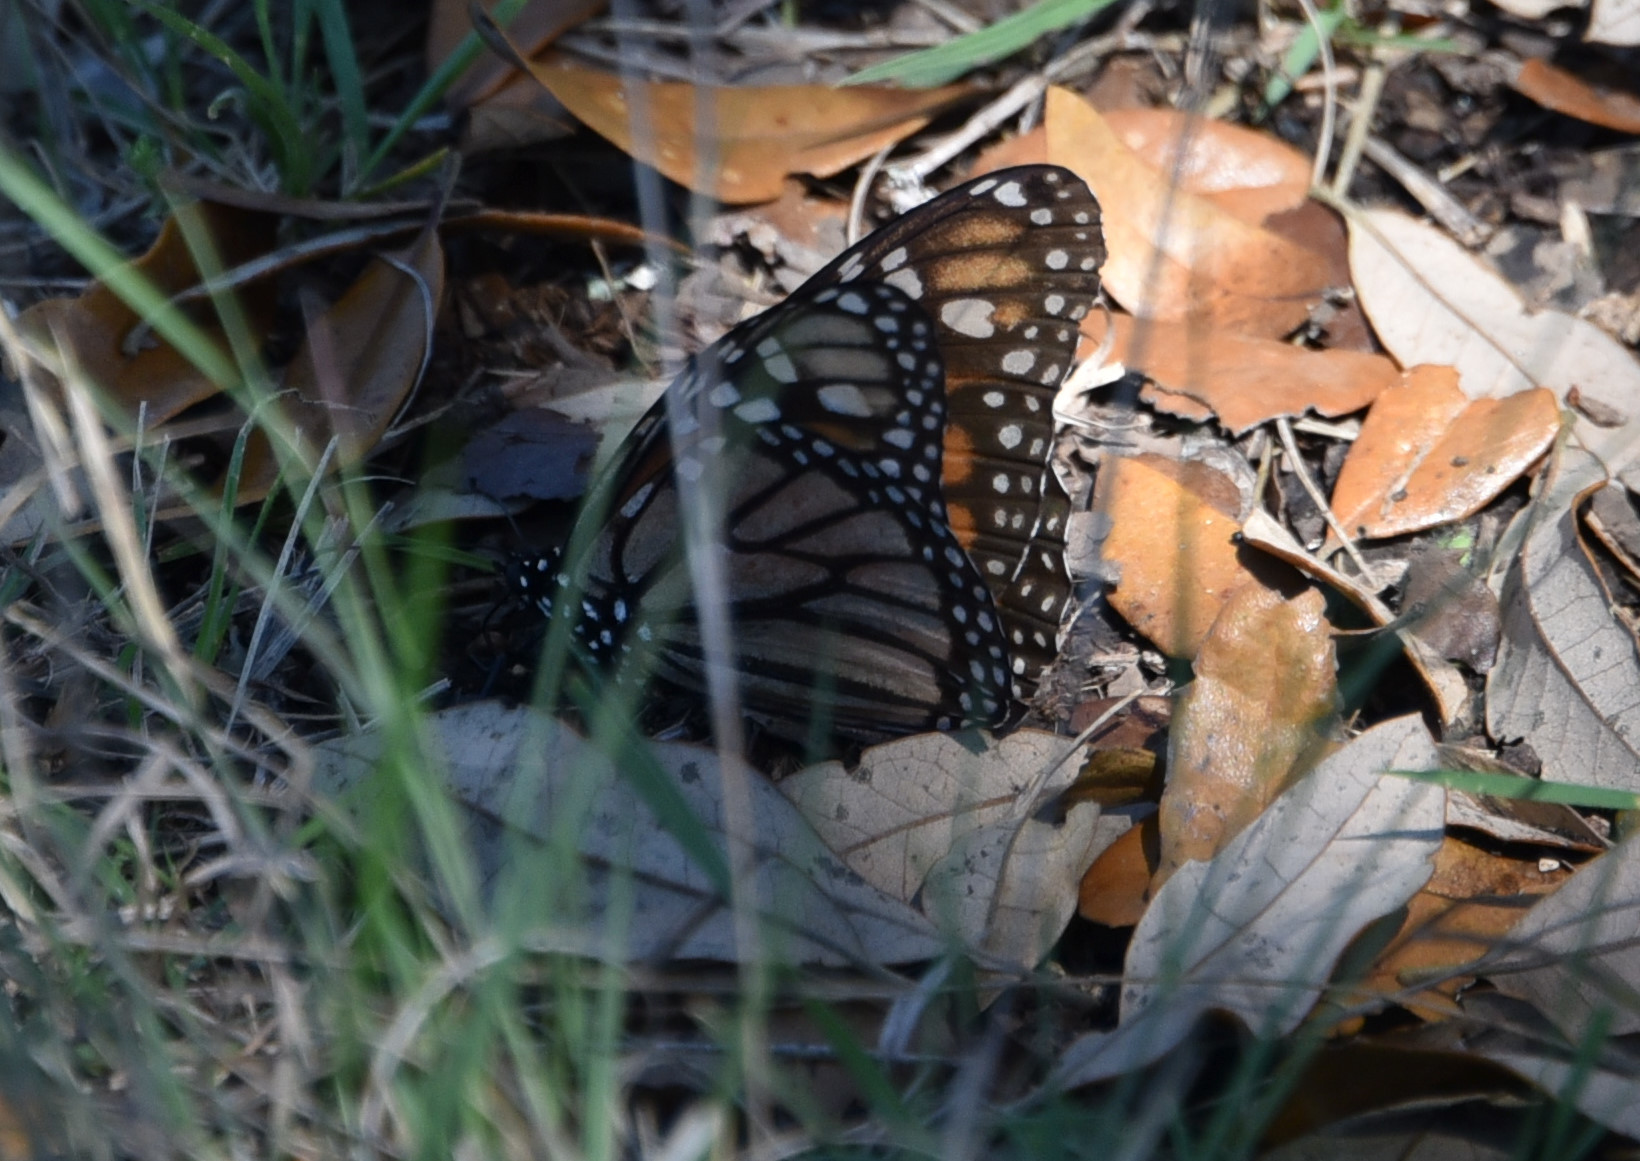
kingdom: Animalia
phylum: Arthropoda
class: Insecta
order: Lepidoptera
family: Nymphalidae
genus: Danaus
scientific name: Danaus plexippus
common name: Monarch
